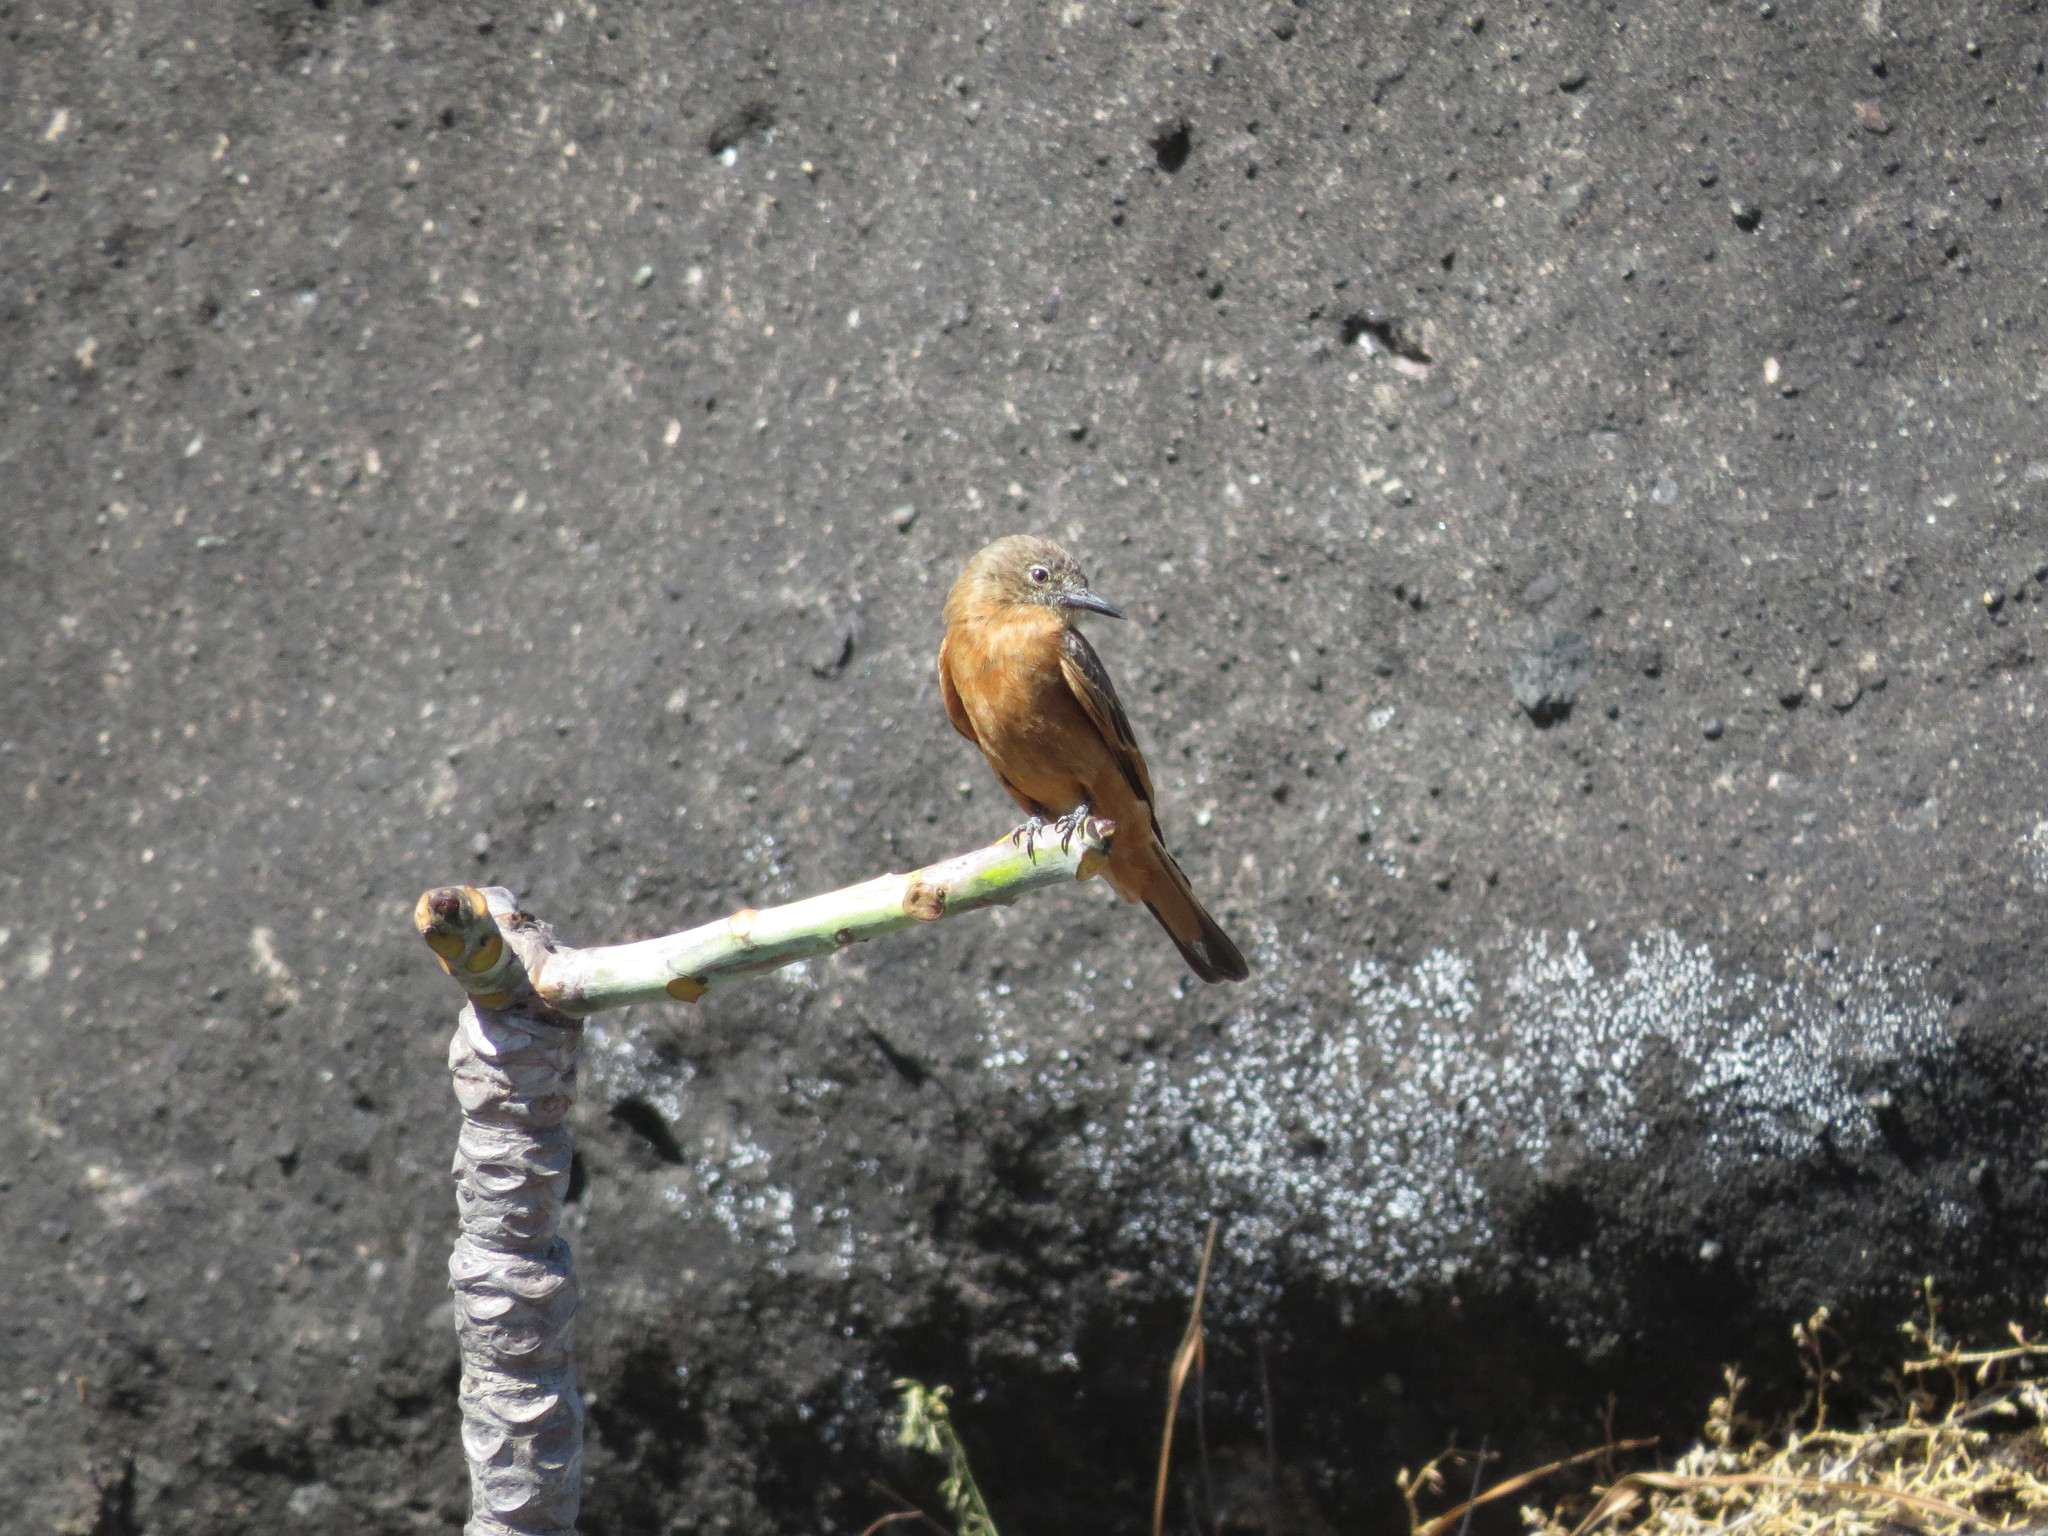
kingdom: Animalia
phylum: Chordata
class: Aves
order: Passeriformes
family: Tyrannidae
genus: Hirundinea
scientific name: Hirundinea ferruginea
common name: Cliff flycatcher
